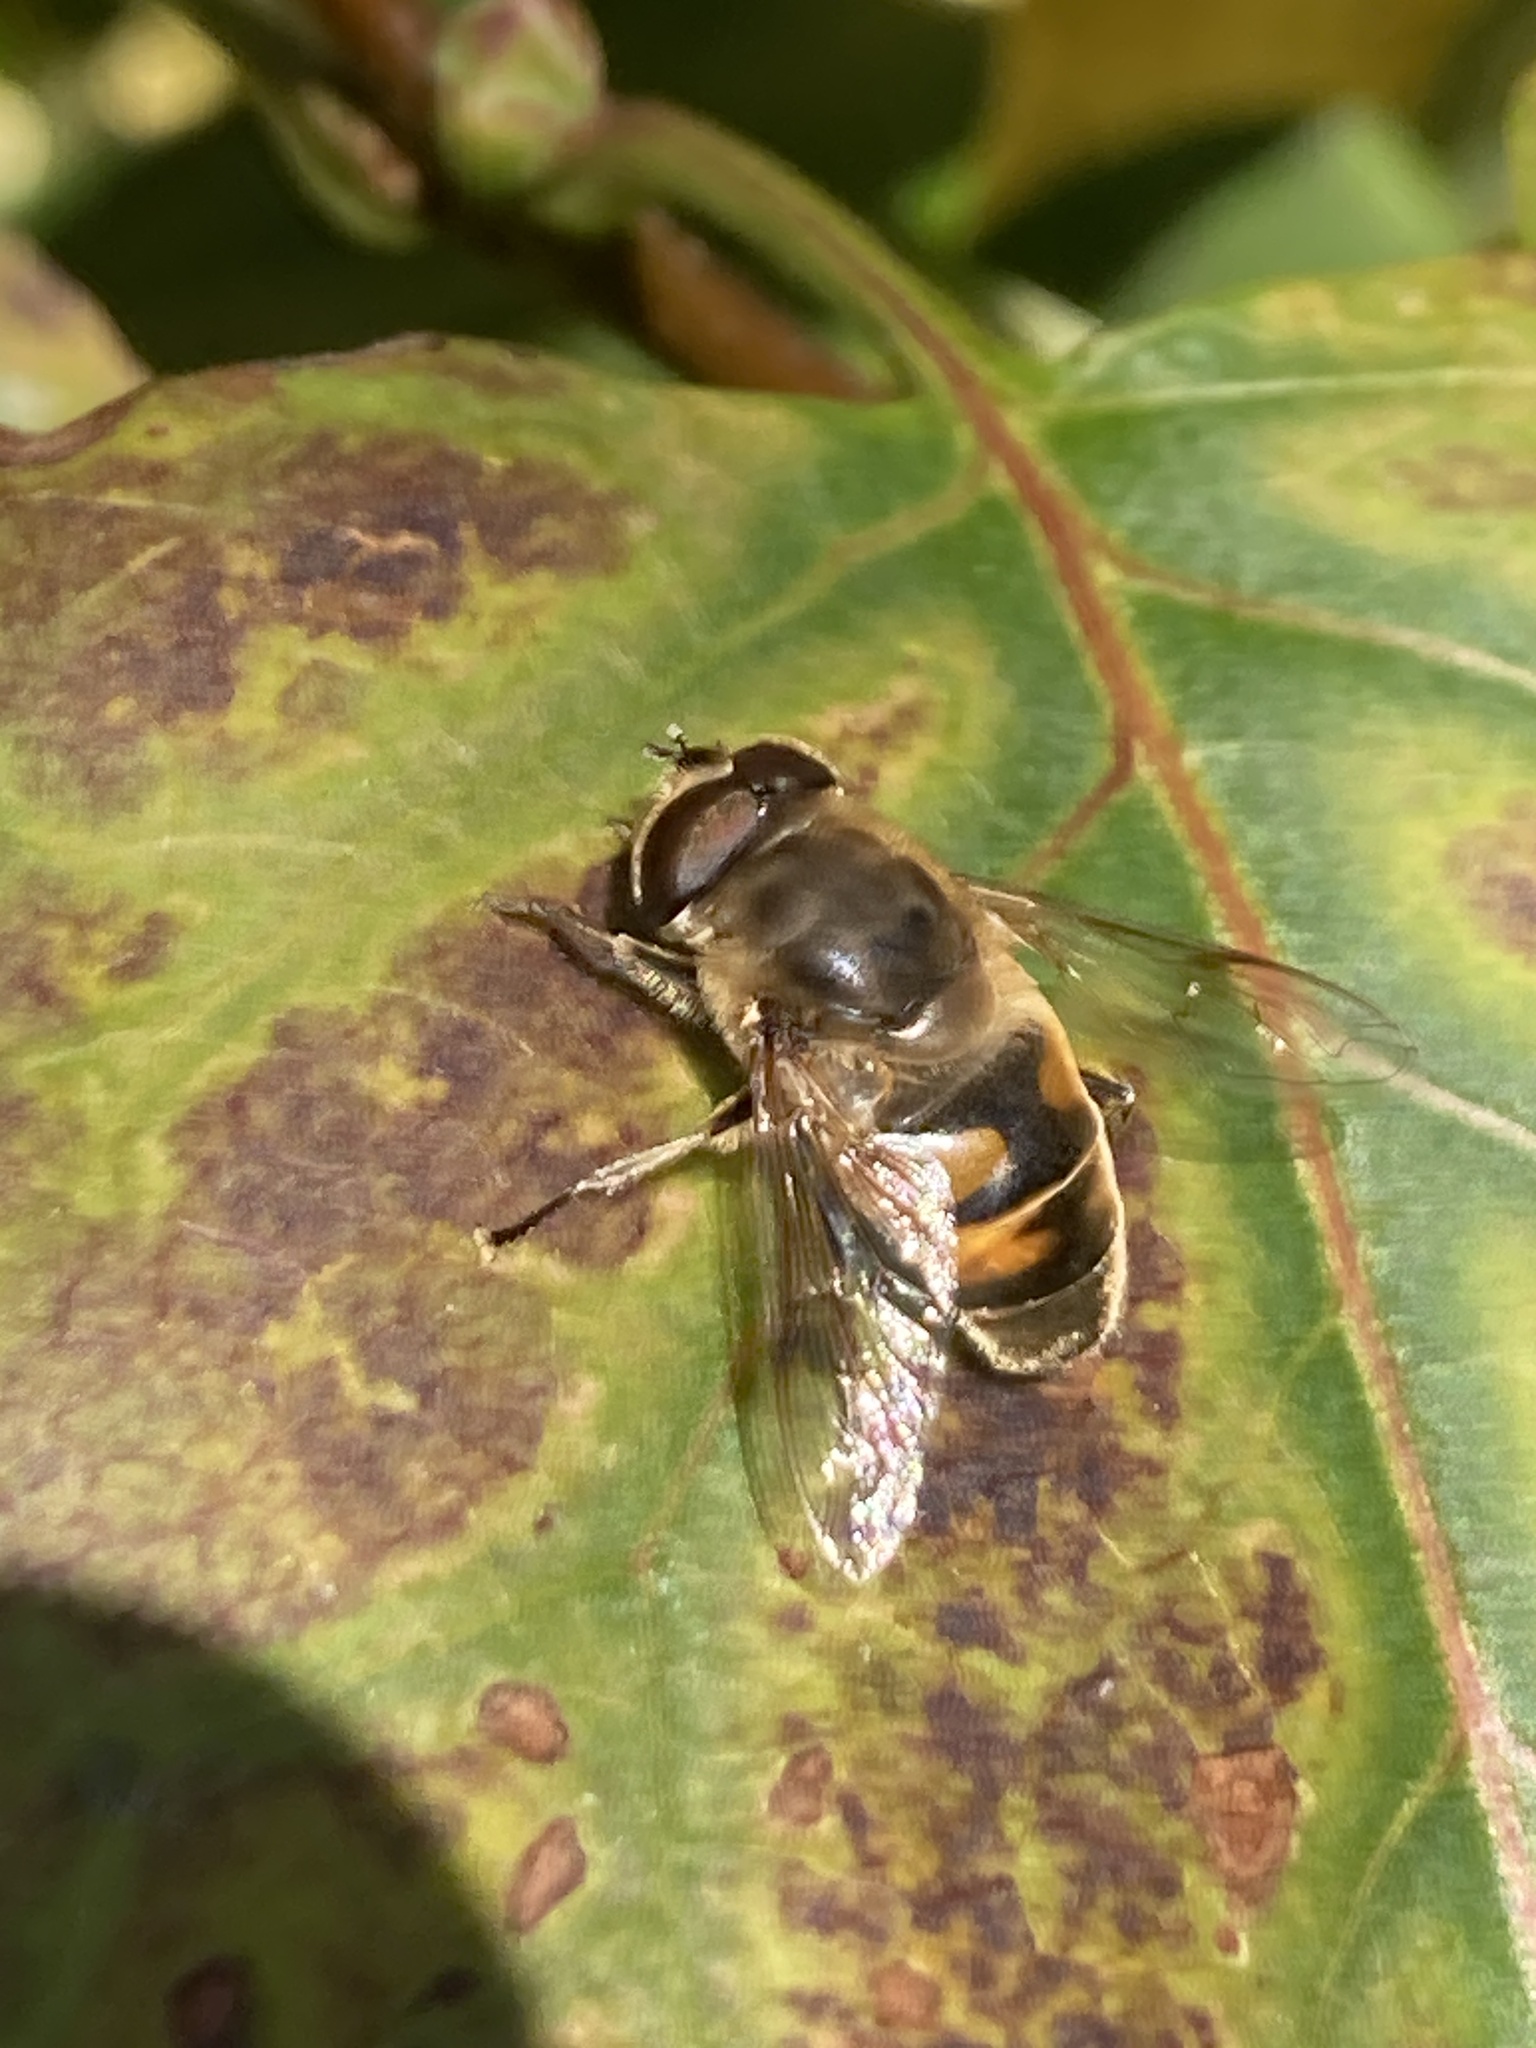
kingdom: Animalia
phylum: Arthropoda
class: Insecta
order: Diptera
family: Syrphidae
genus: Eristalis
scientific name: Eristalis tenax
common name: Drone fly
